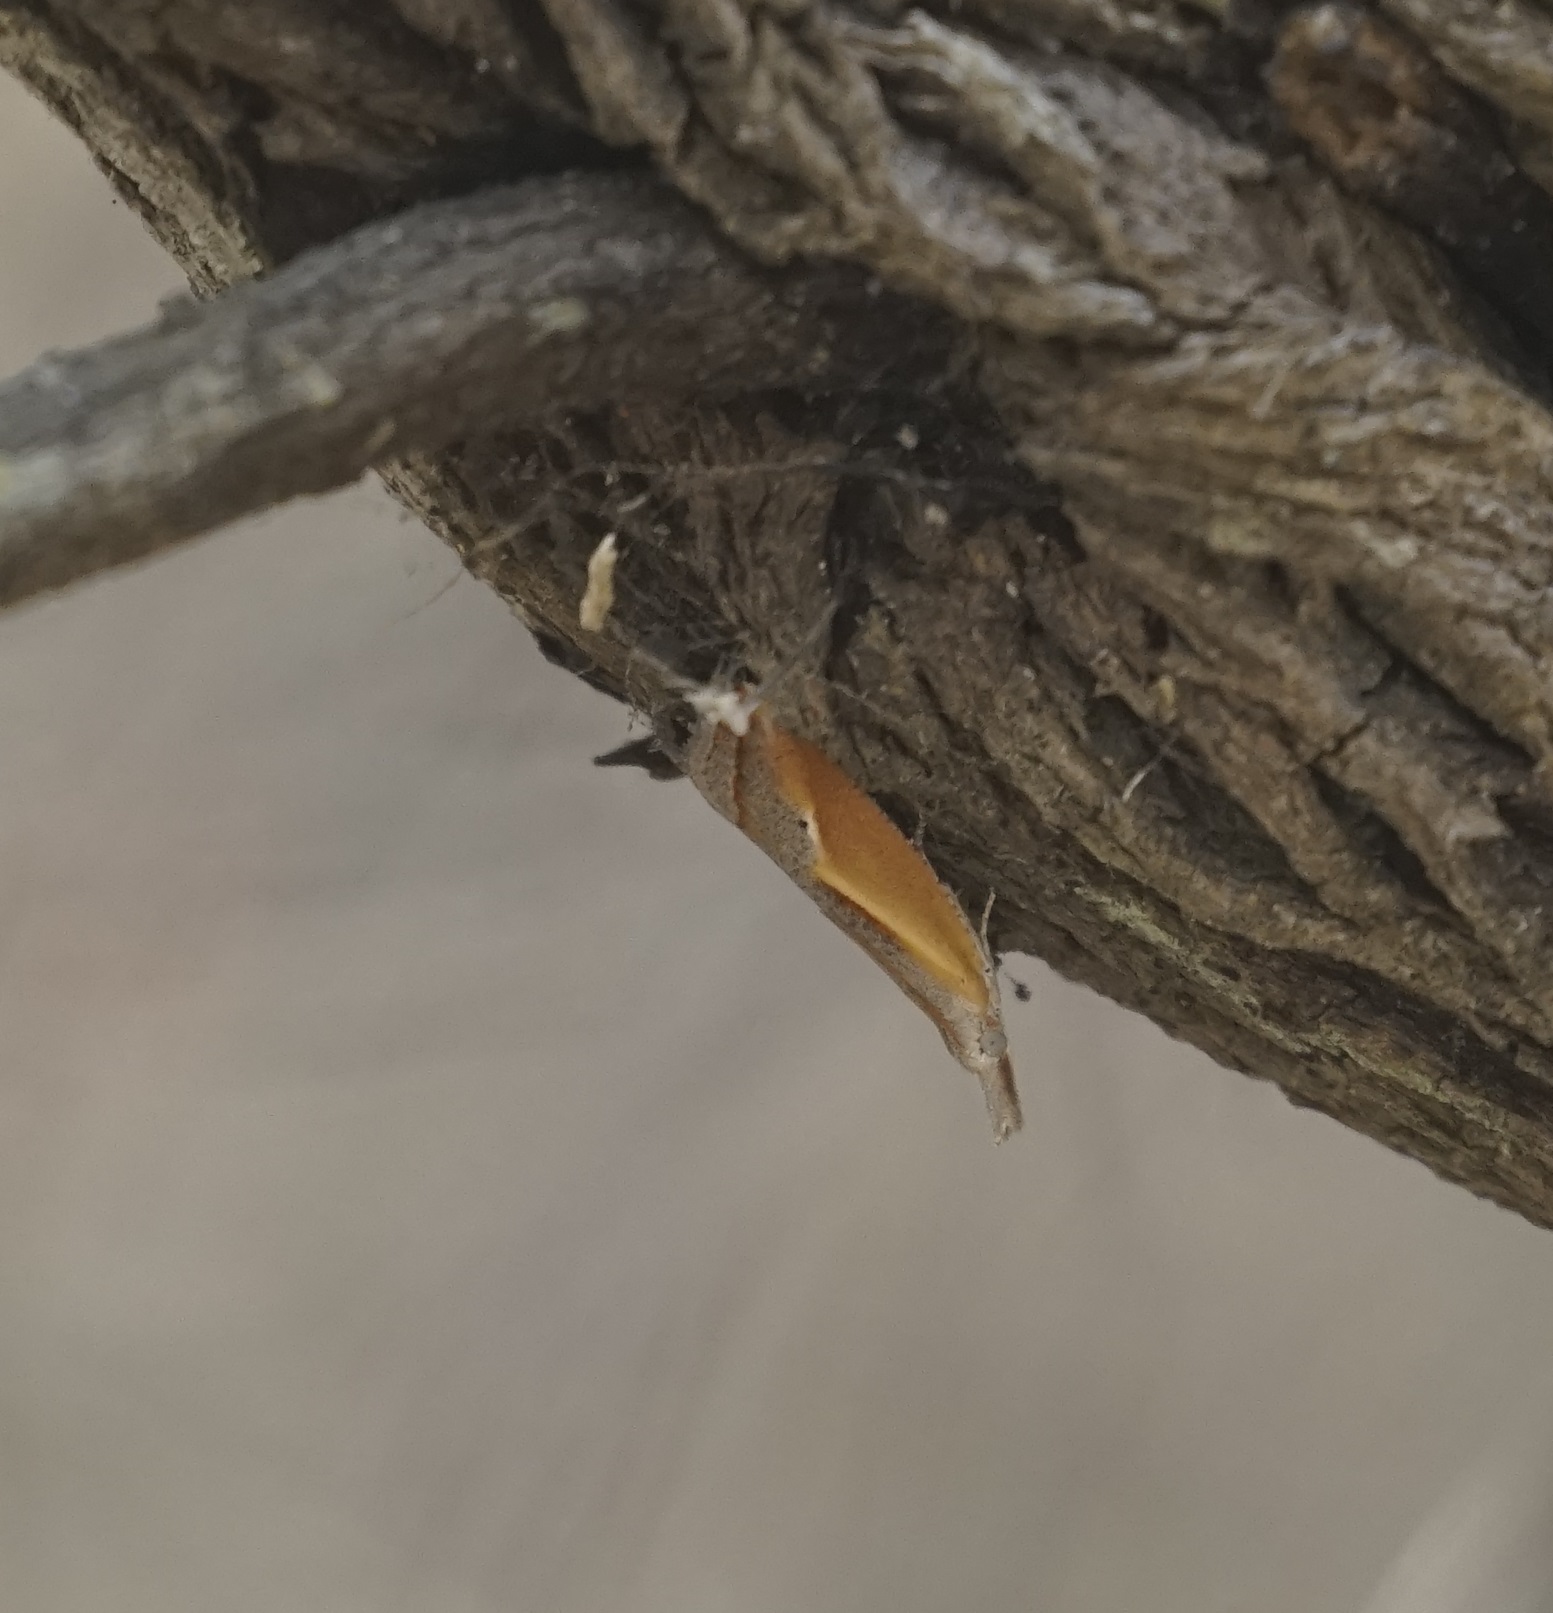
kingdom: Animalia
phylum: Arthropoda
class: Insecta
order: Lepidoptera
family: Tortricidae
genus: Arotrophora
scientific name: Arotrophora arcuatalis
